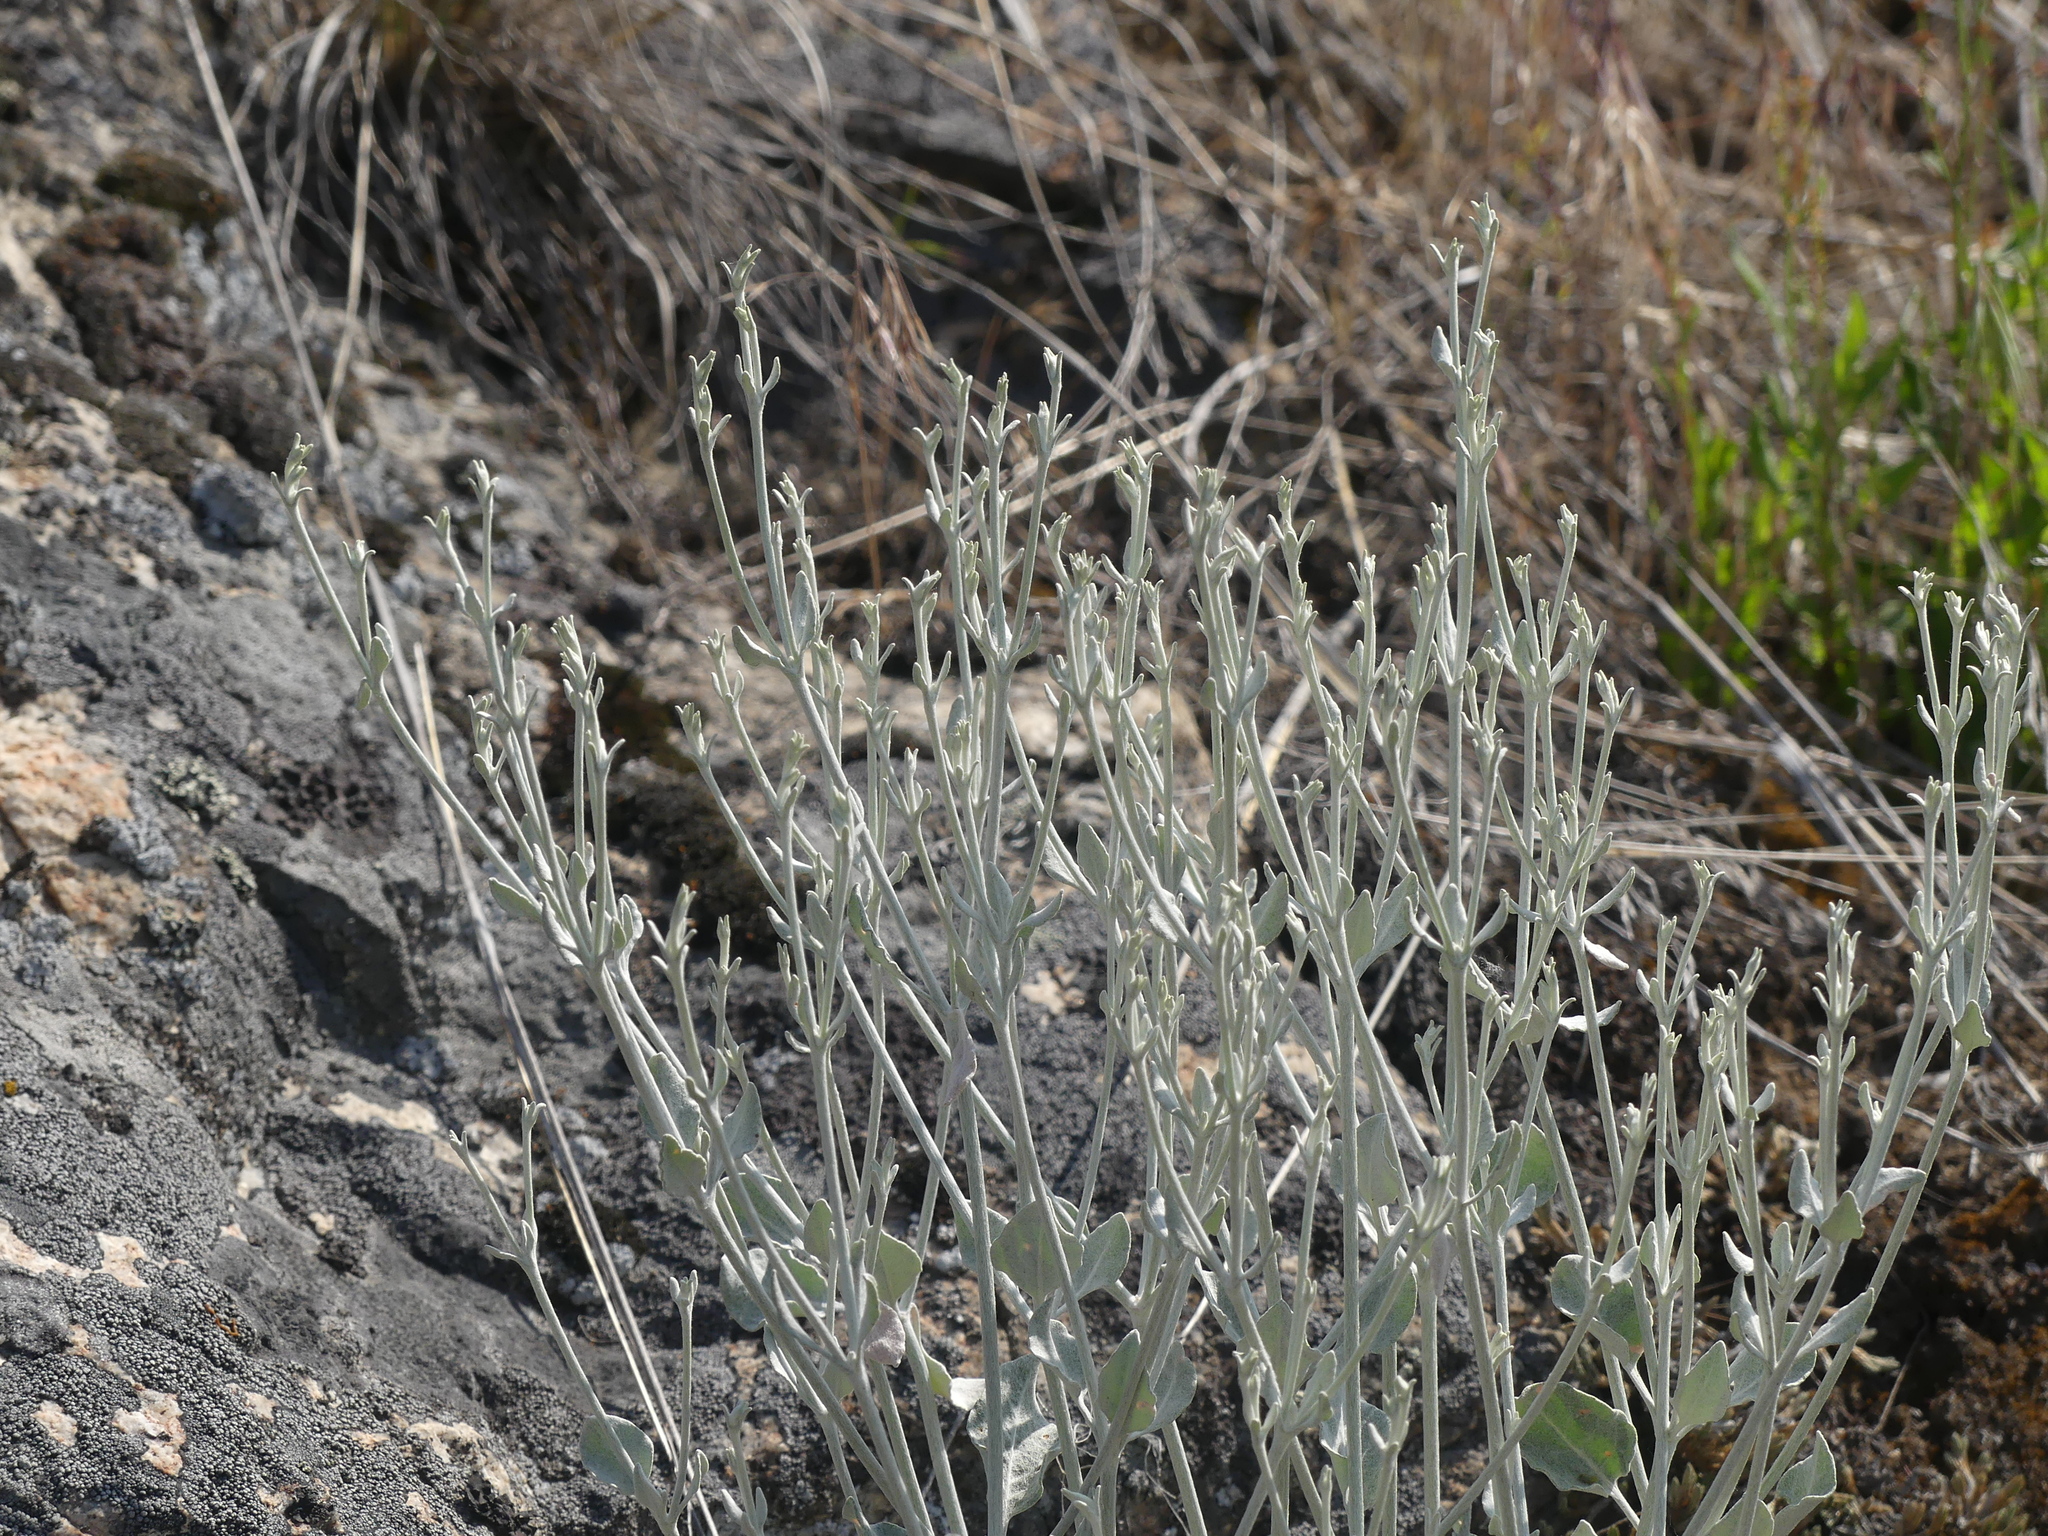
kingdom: Plantae
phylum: Tracheophyta
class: Magnoliopsida
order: Caryophyllales
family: Polygonaceae
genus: Eriogonum
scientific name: Eriogonum niveum
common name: Snow wild buckwheat
